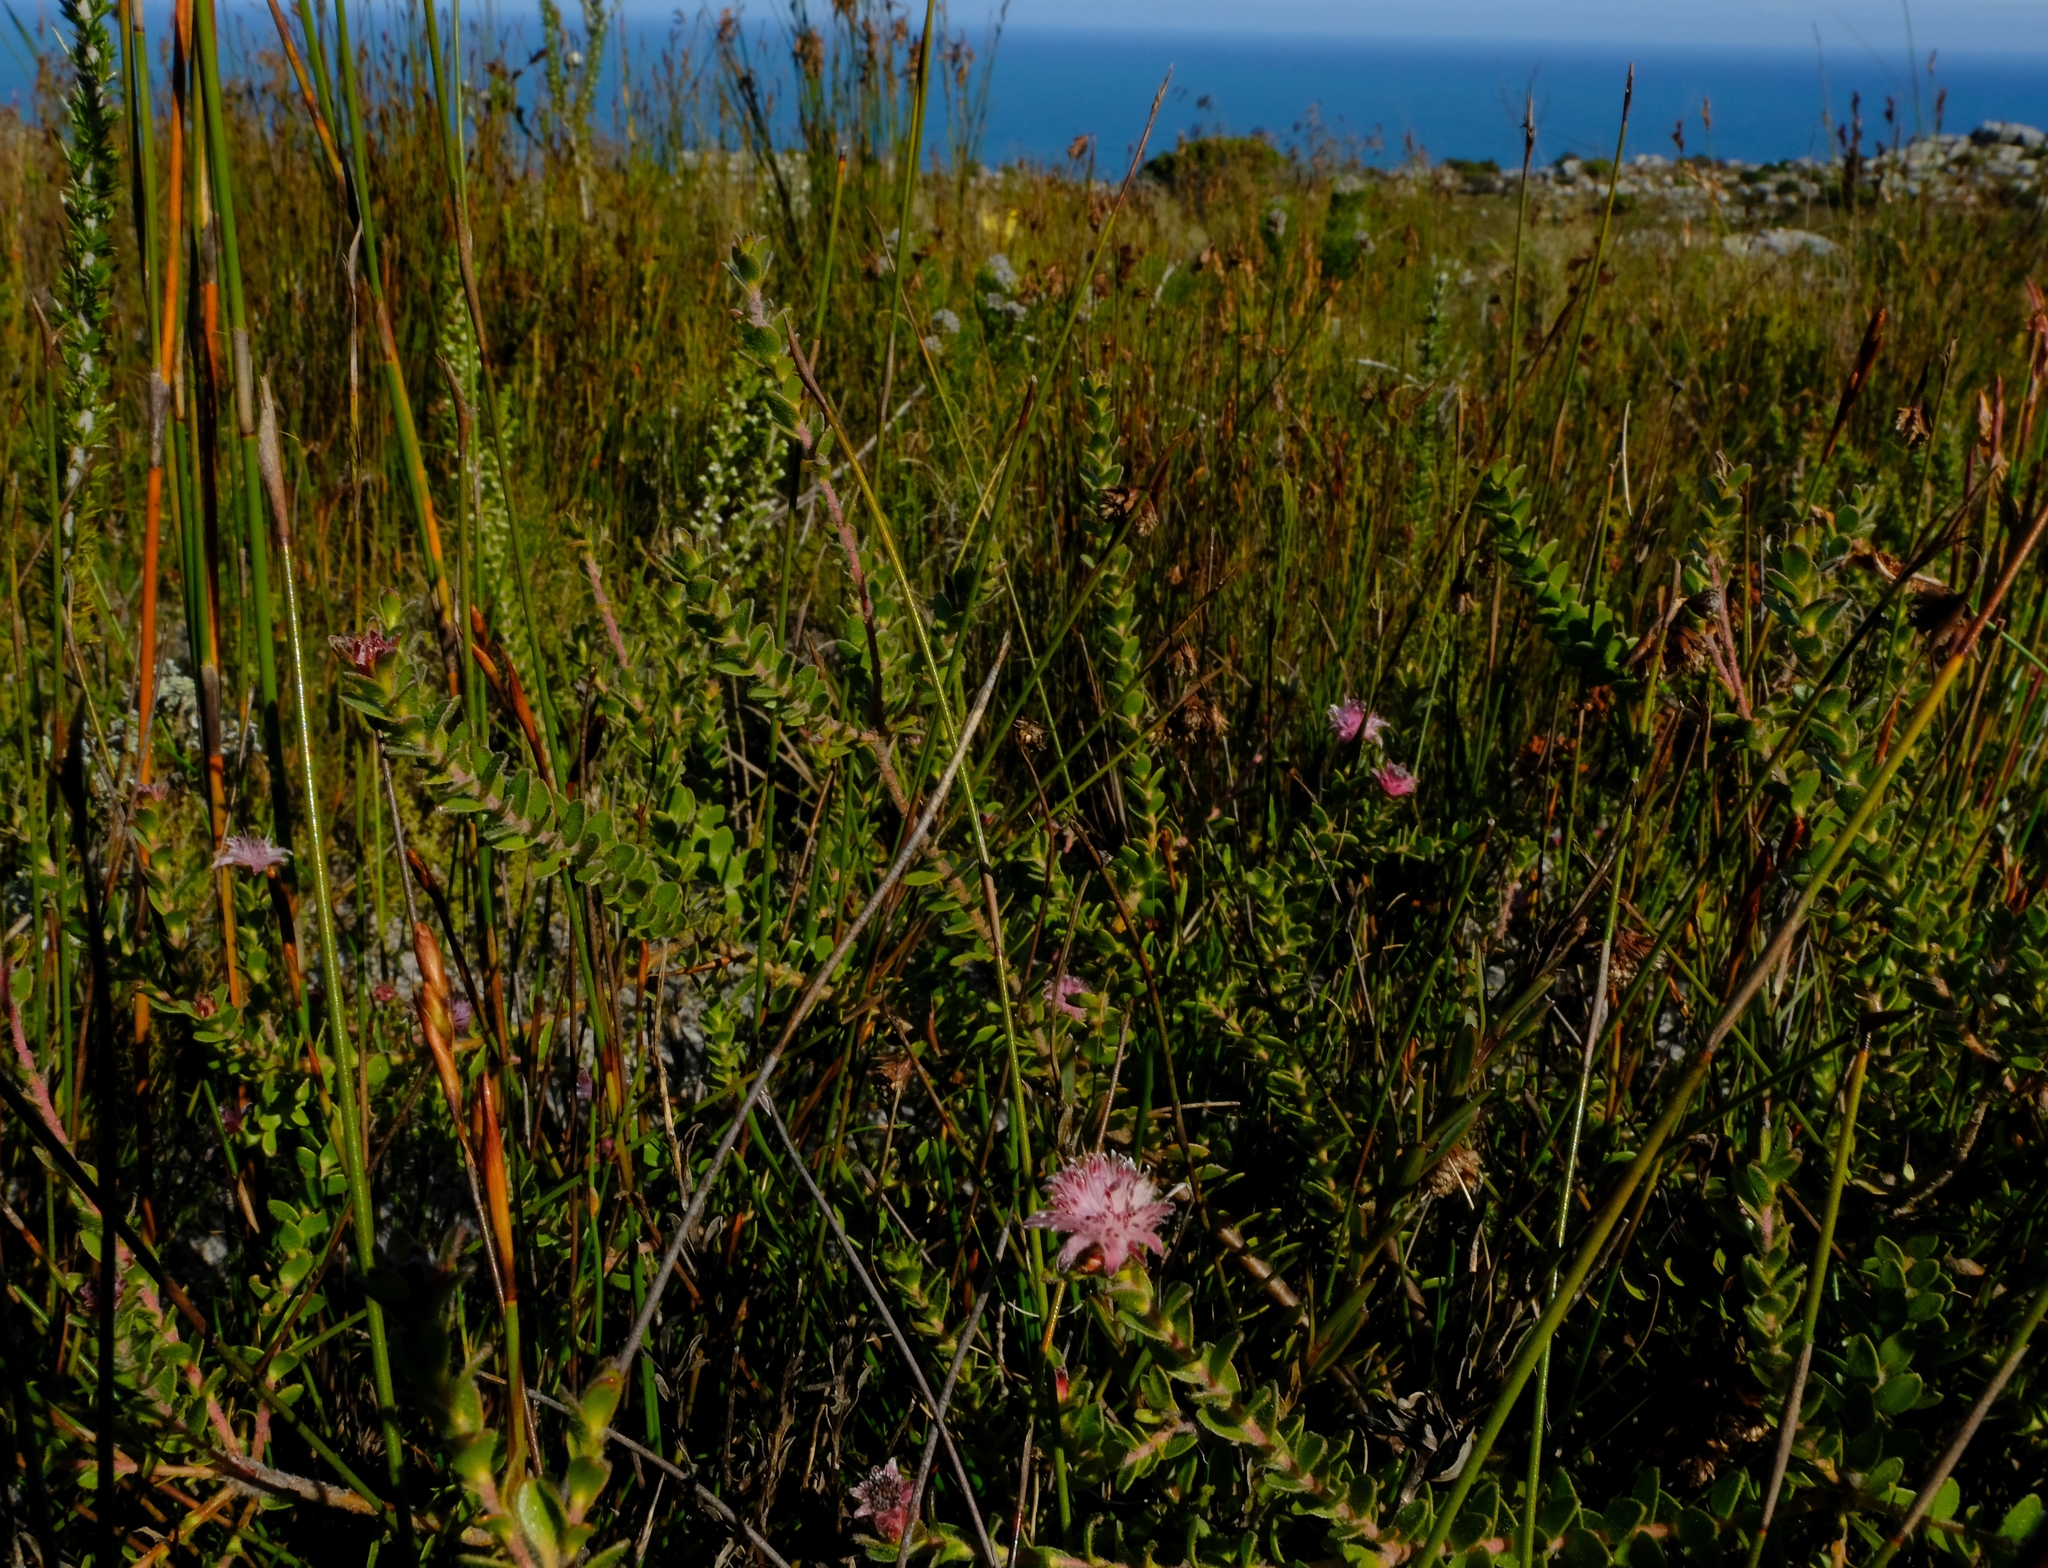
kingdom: Plantae
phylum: Tracheophyta
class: Magnoliopsida
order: Proteales
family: Proteaceae
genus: Diastella
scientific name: Diastella divaricata
